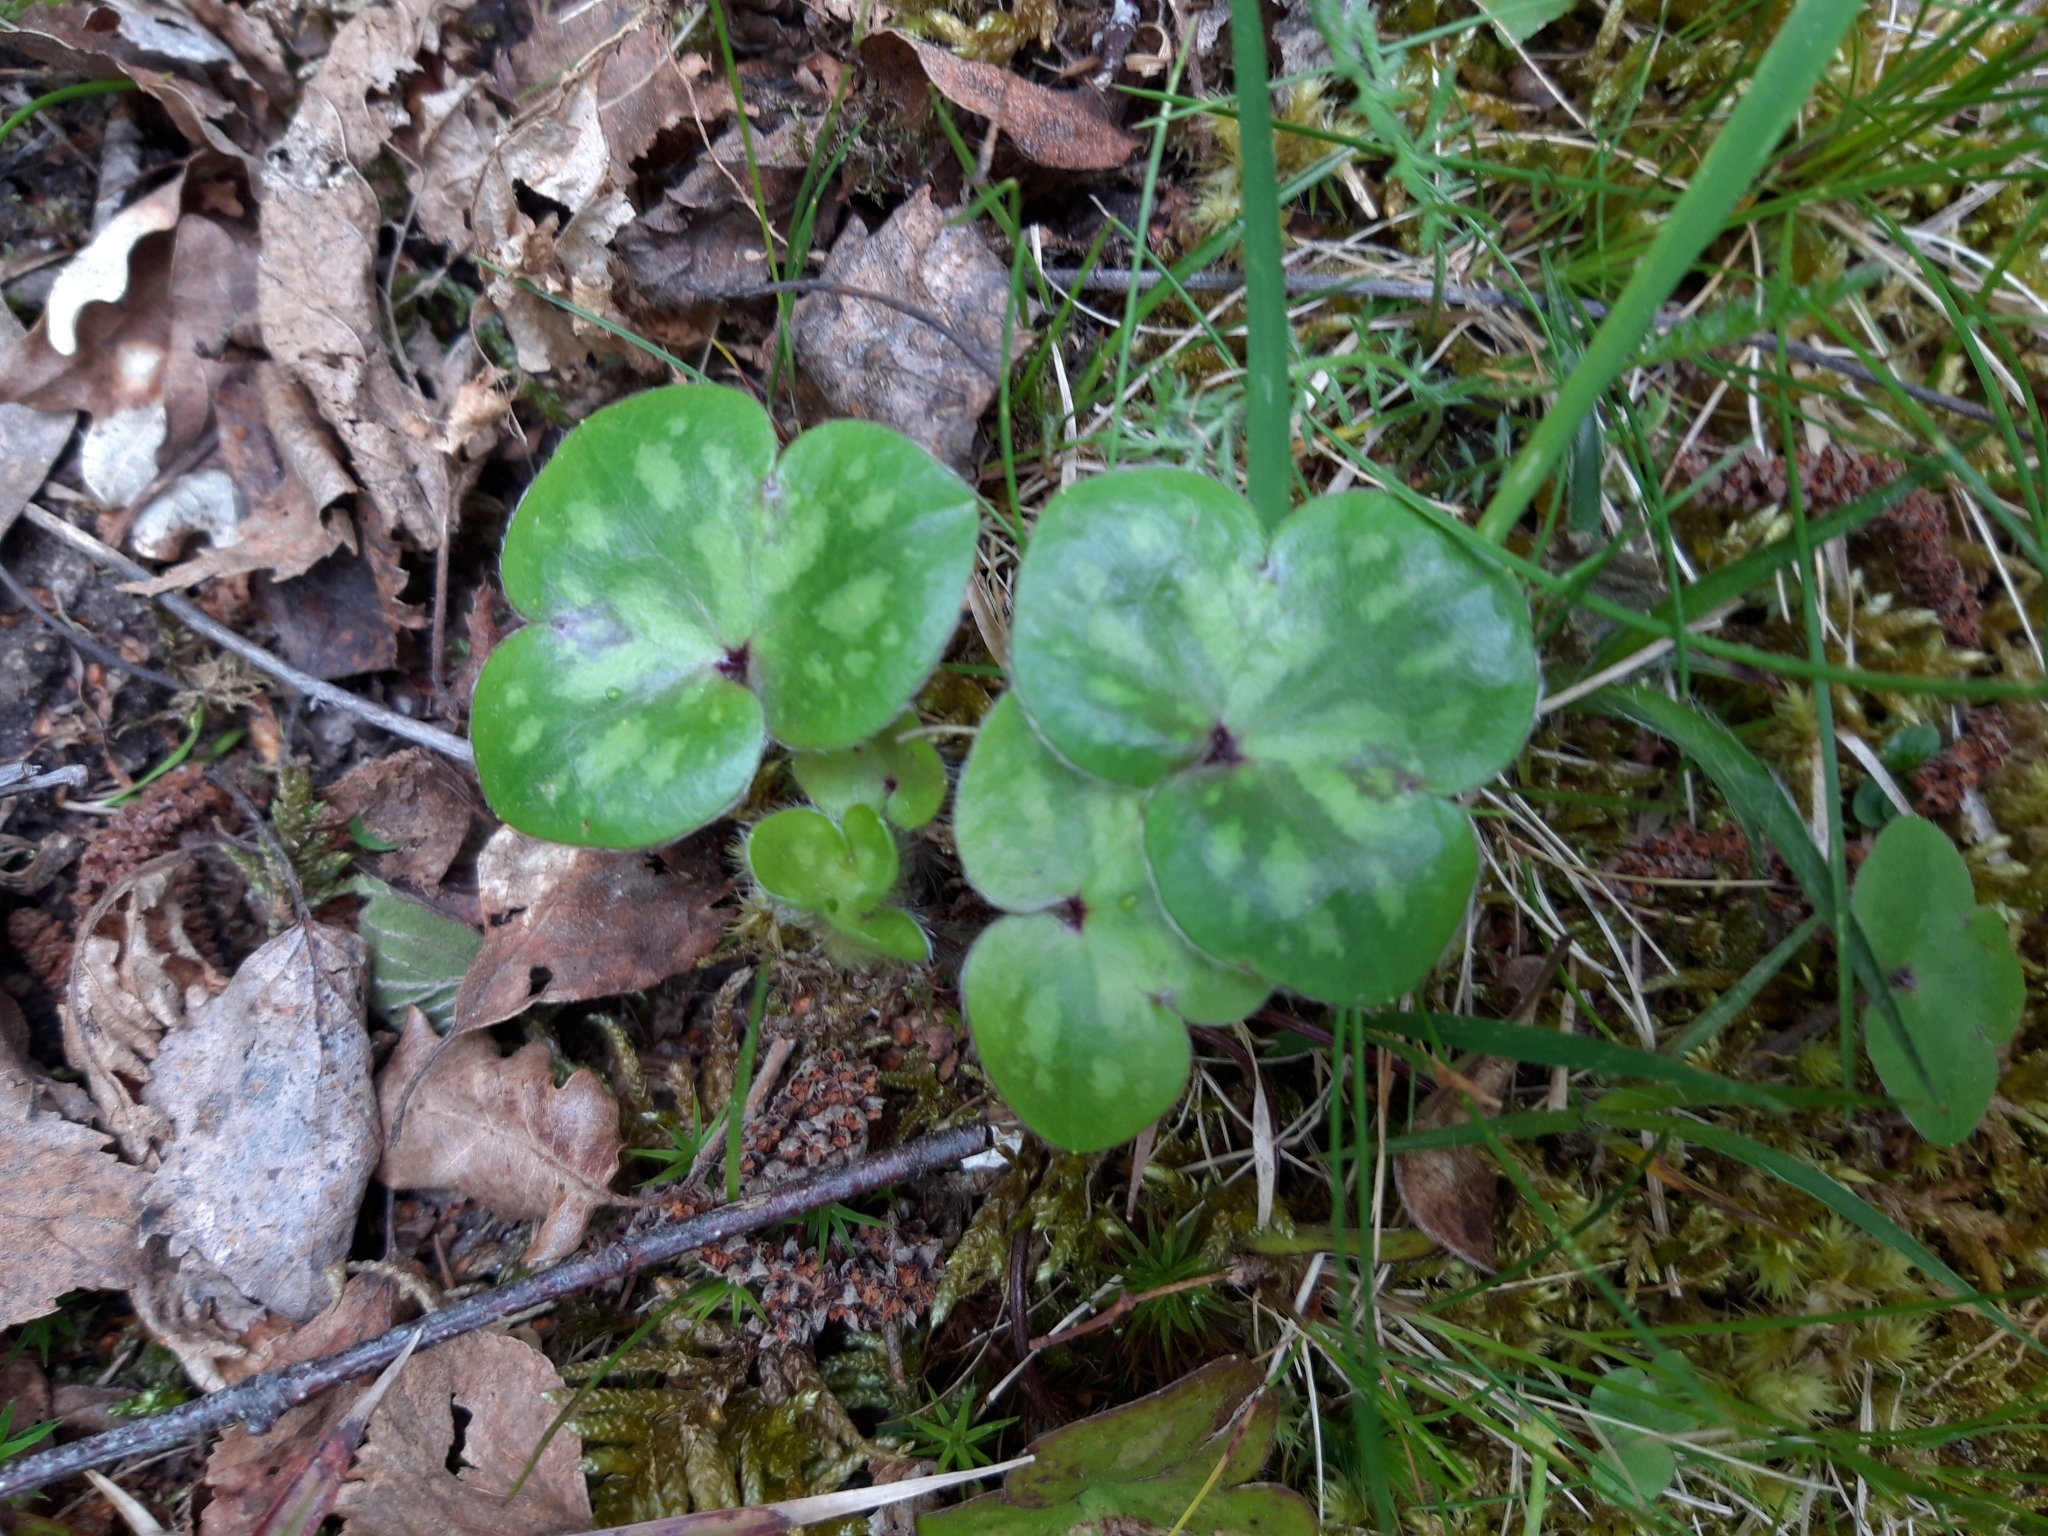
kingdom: Plantae
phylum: Tracheophyta
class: Magnoliopsida
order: Ranunculales
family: Ranunculaceae
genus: Hepatica
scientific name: Hepatica nobilis
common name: Liverleaf
